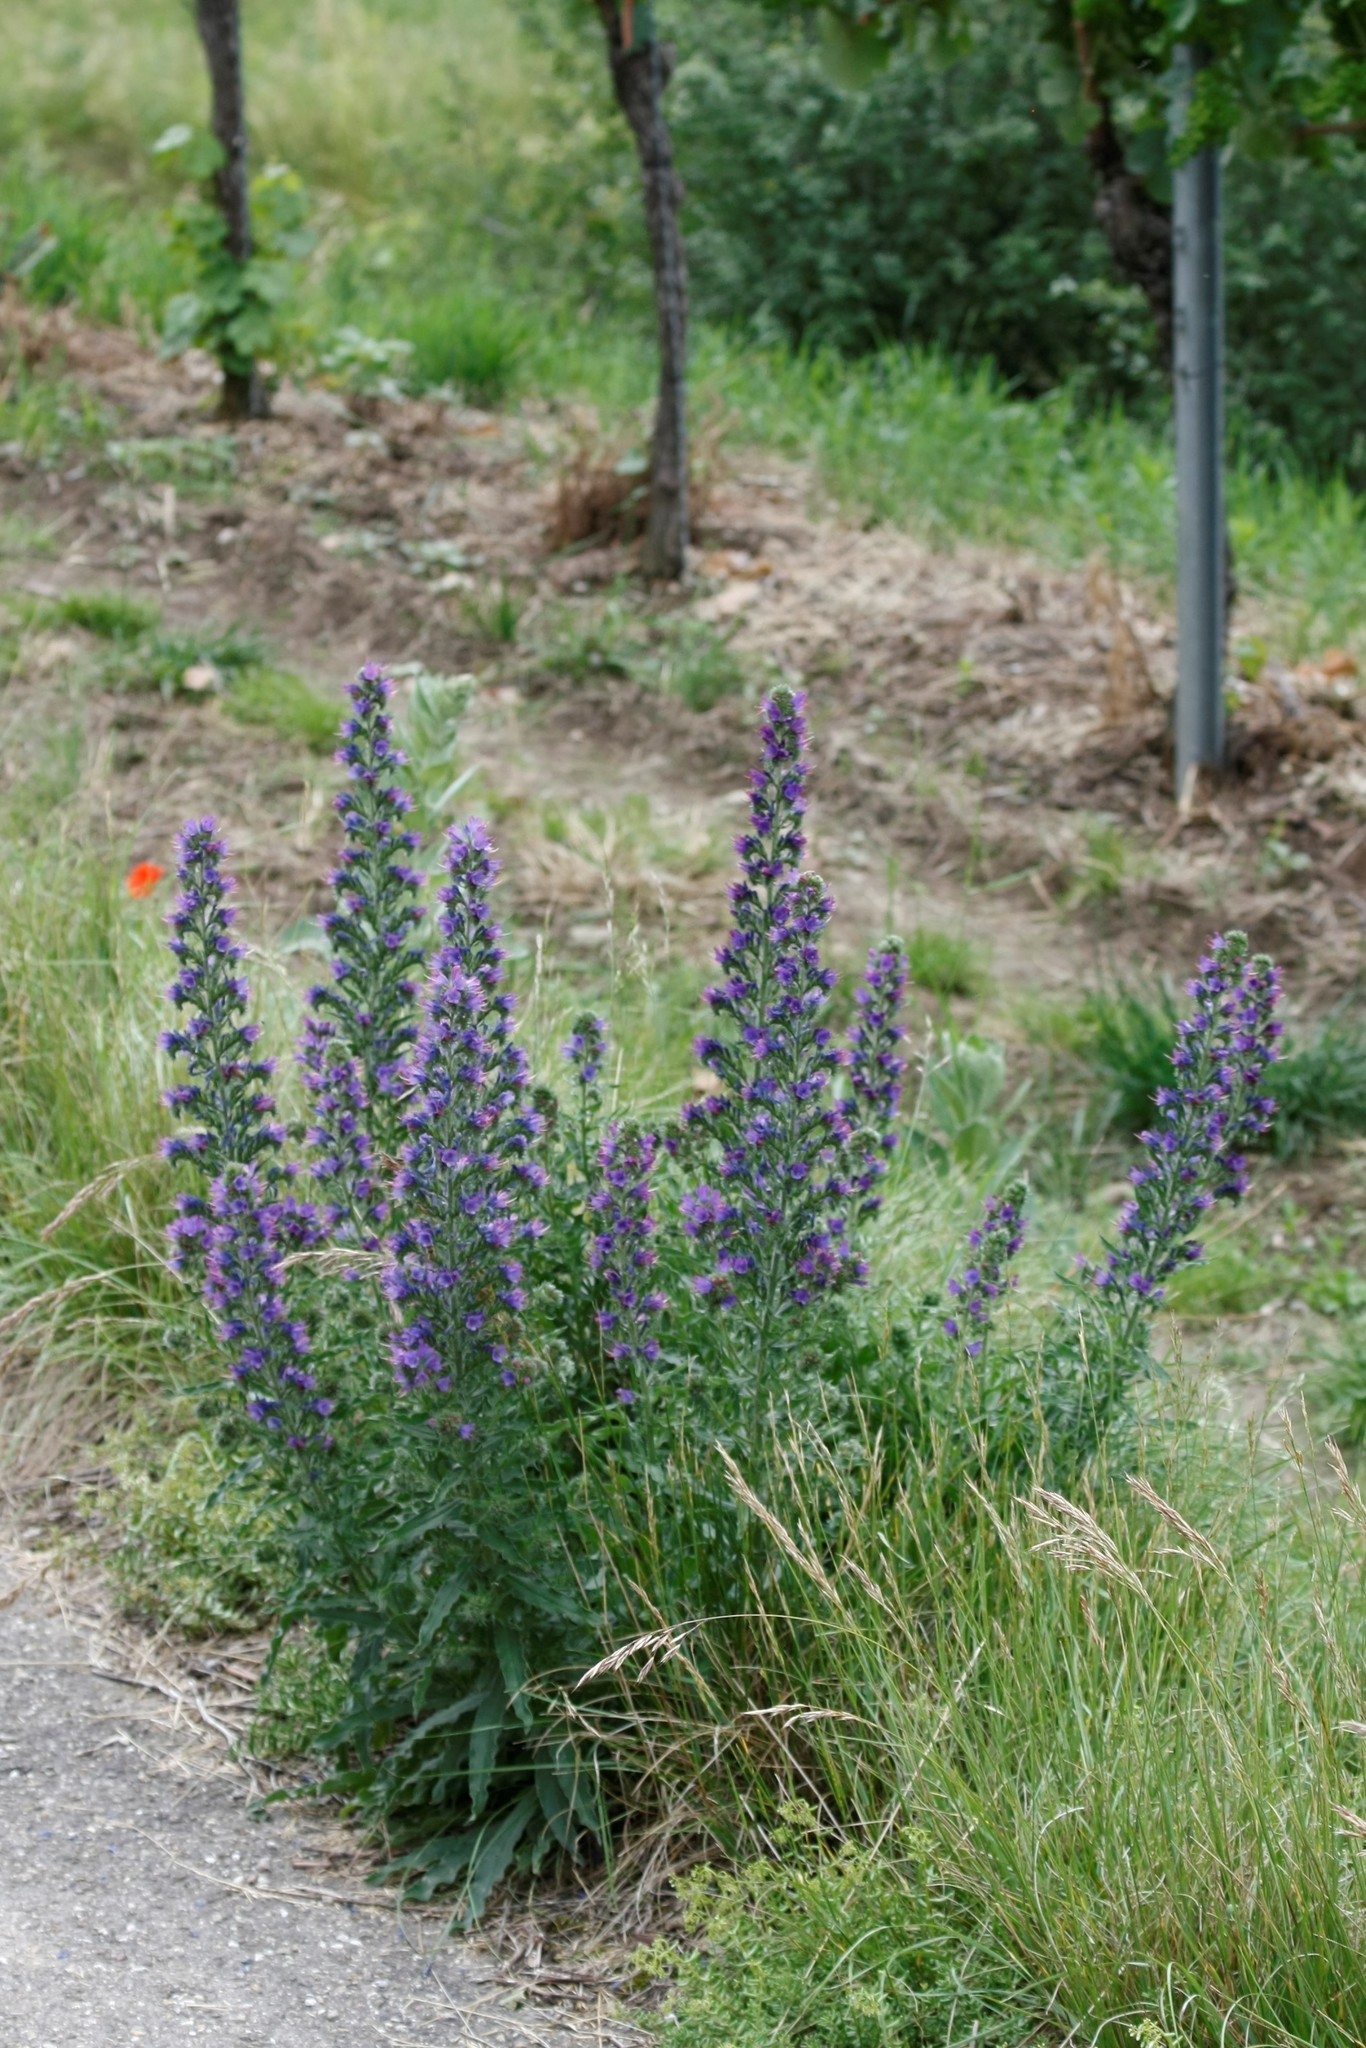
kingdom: Plantae
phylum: Tracheophyta
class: Magnoliopsida
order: Boraginales
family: Boraginaceae
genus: Echium
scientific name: Echium vulgare
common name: Common viper's bugloss
